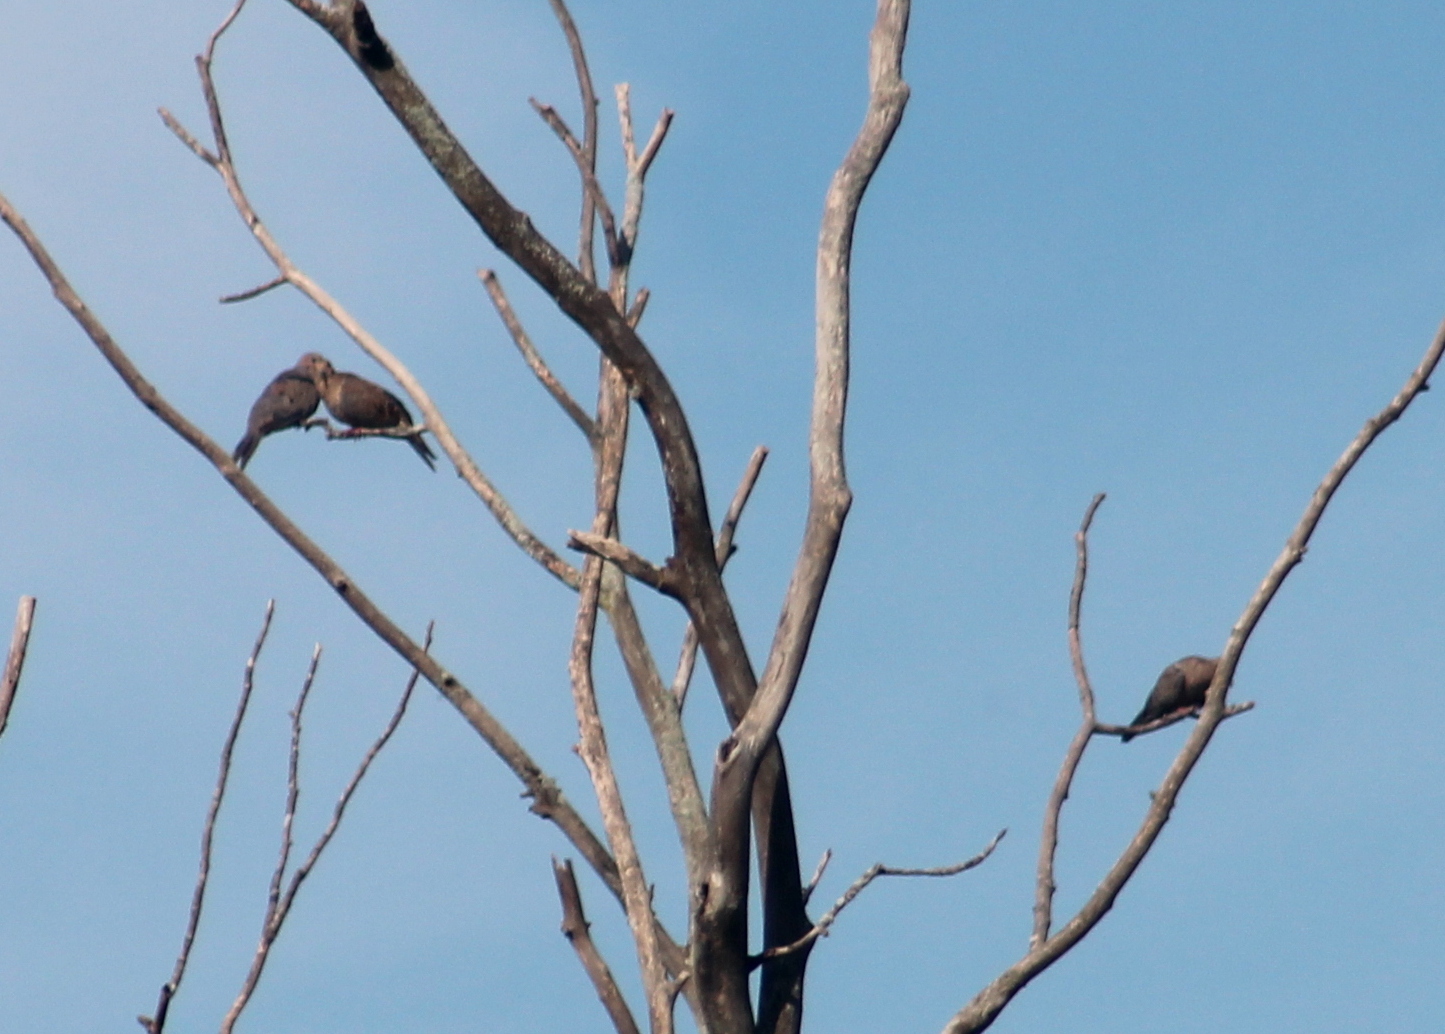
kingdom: Animalia
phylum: Chordata
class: Aves
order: Columbiformes
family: Columbidae
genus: Zenaida
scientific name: Zenaida macroura
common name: Mourning dove
